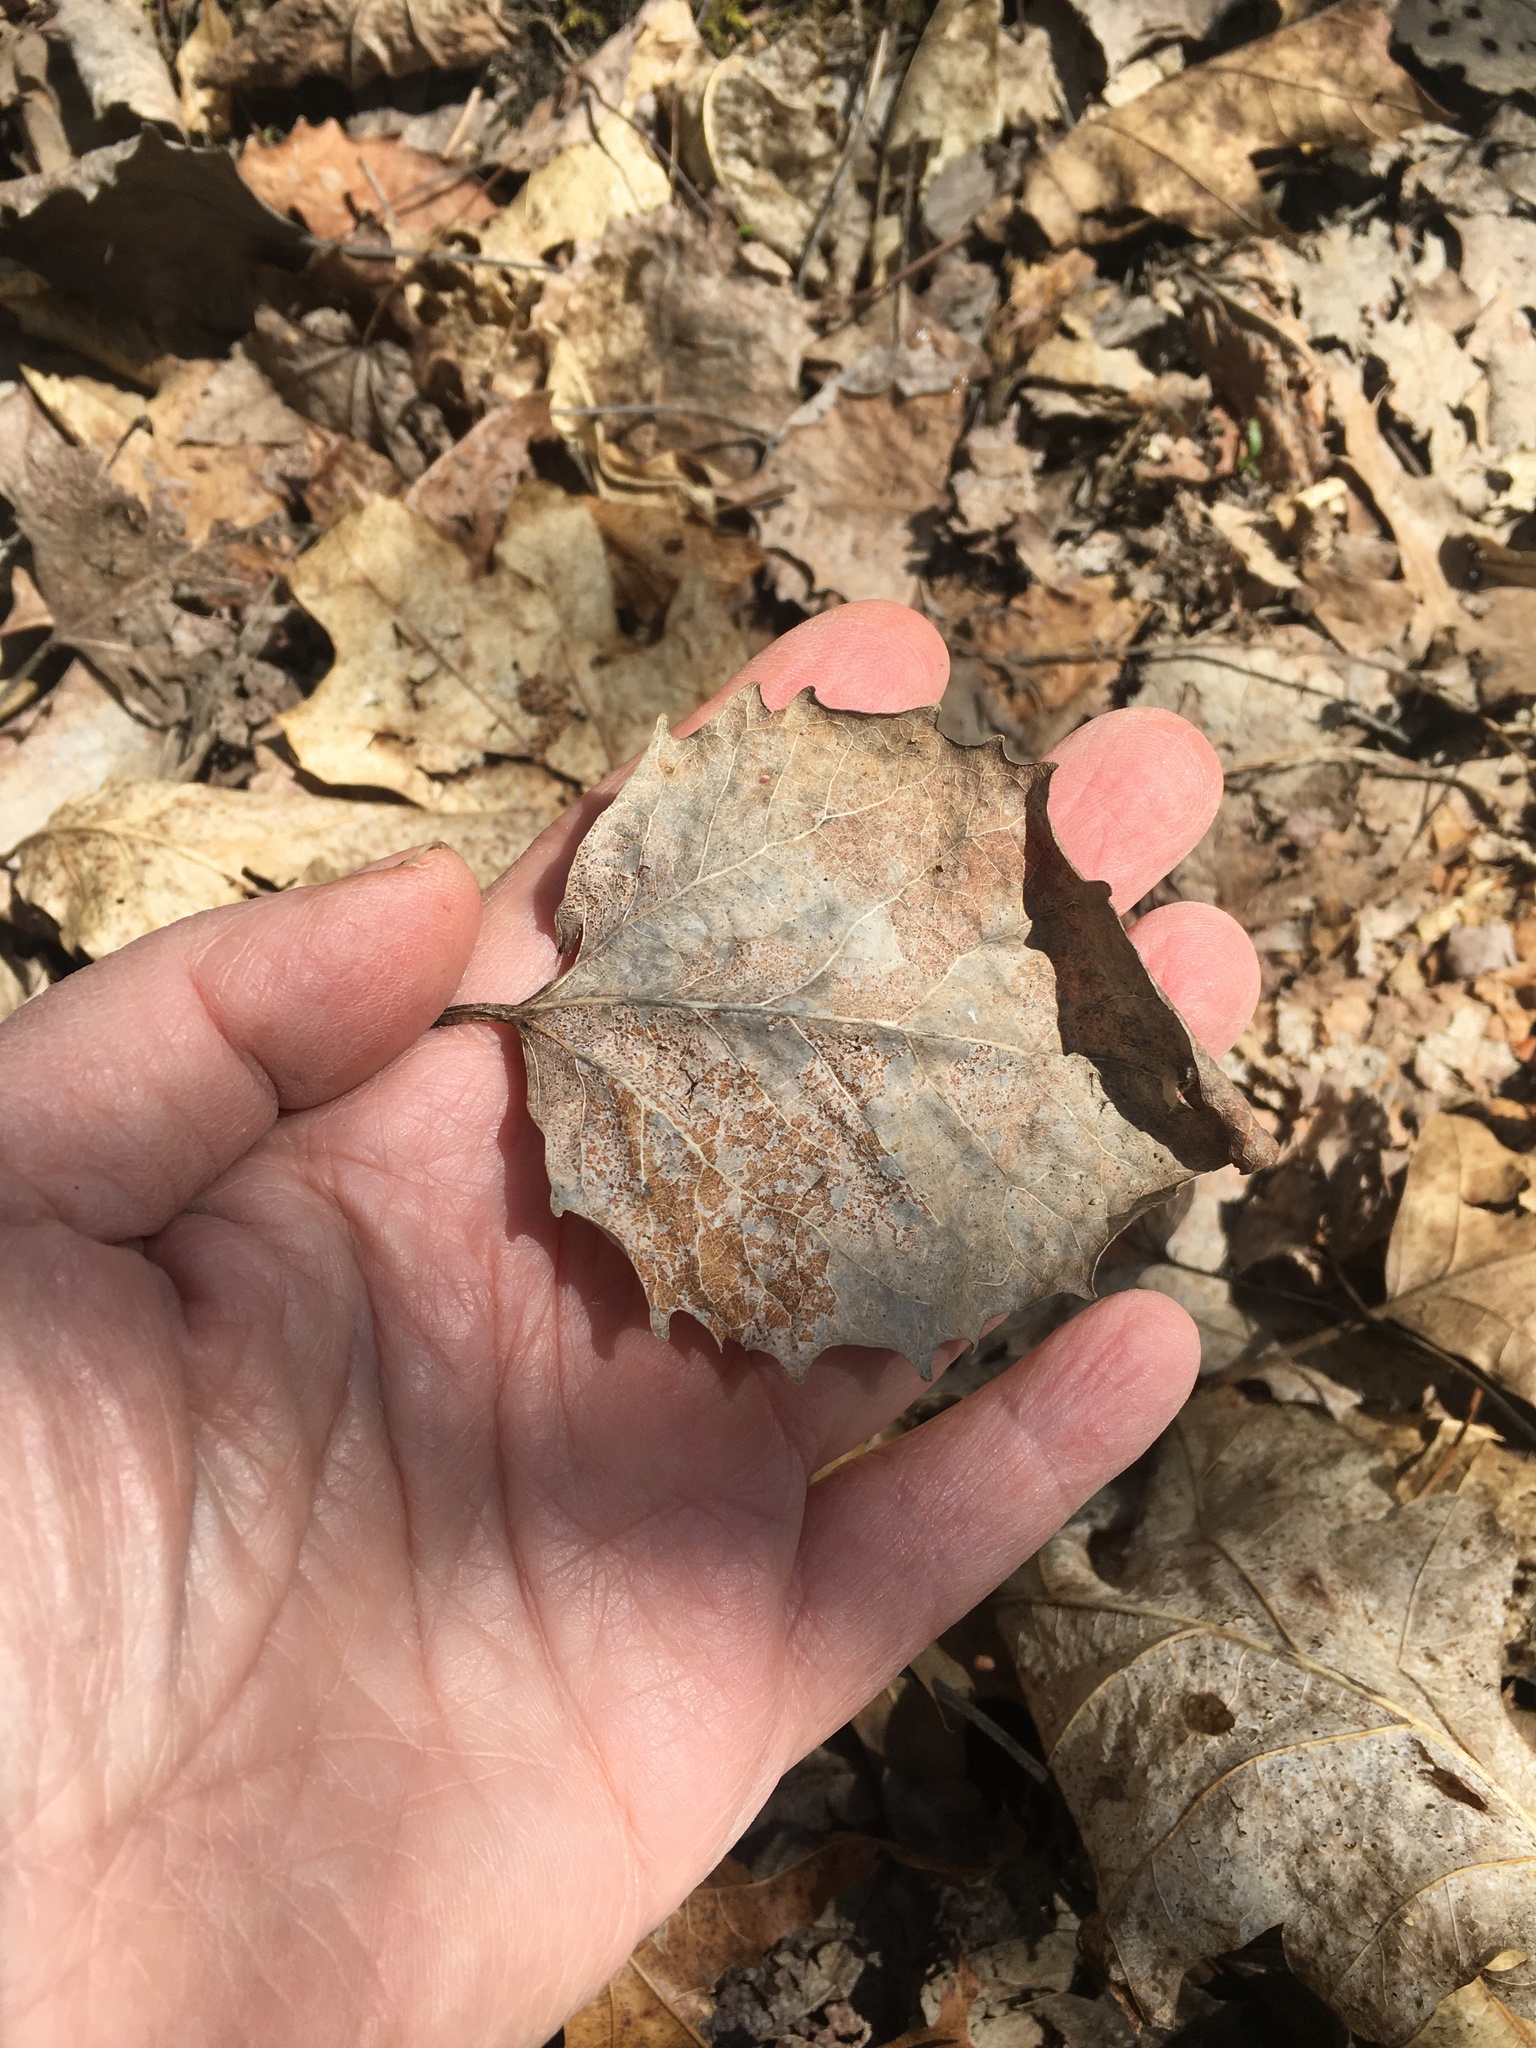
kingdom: Plantae
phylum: Tracheophyta
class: Magnoliopsida
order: Malpighiales
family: Salicaceae
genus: Populus
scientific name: Populus grandidentata
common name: Bigtooth aspen
